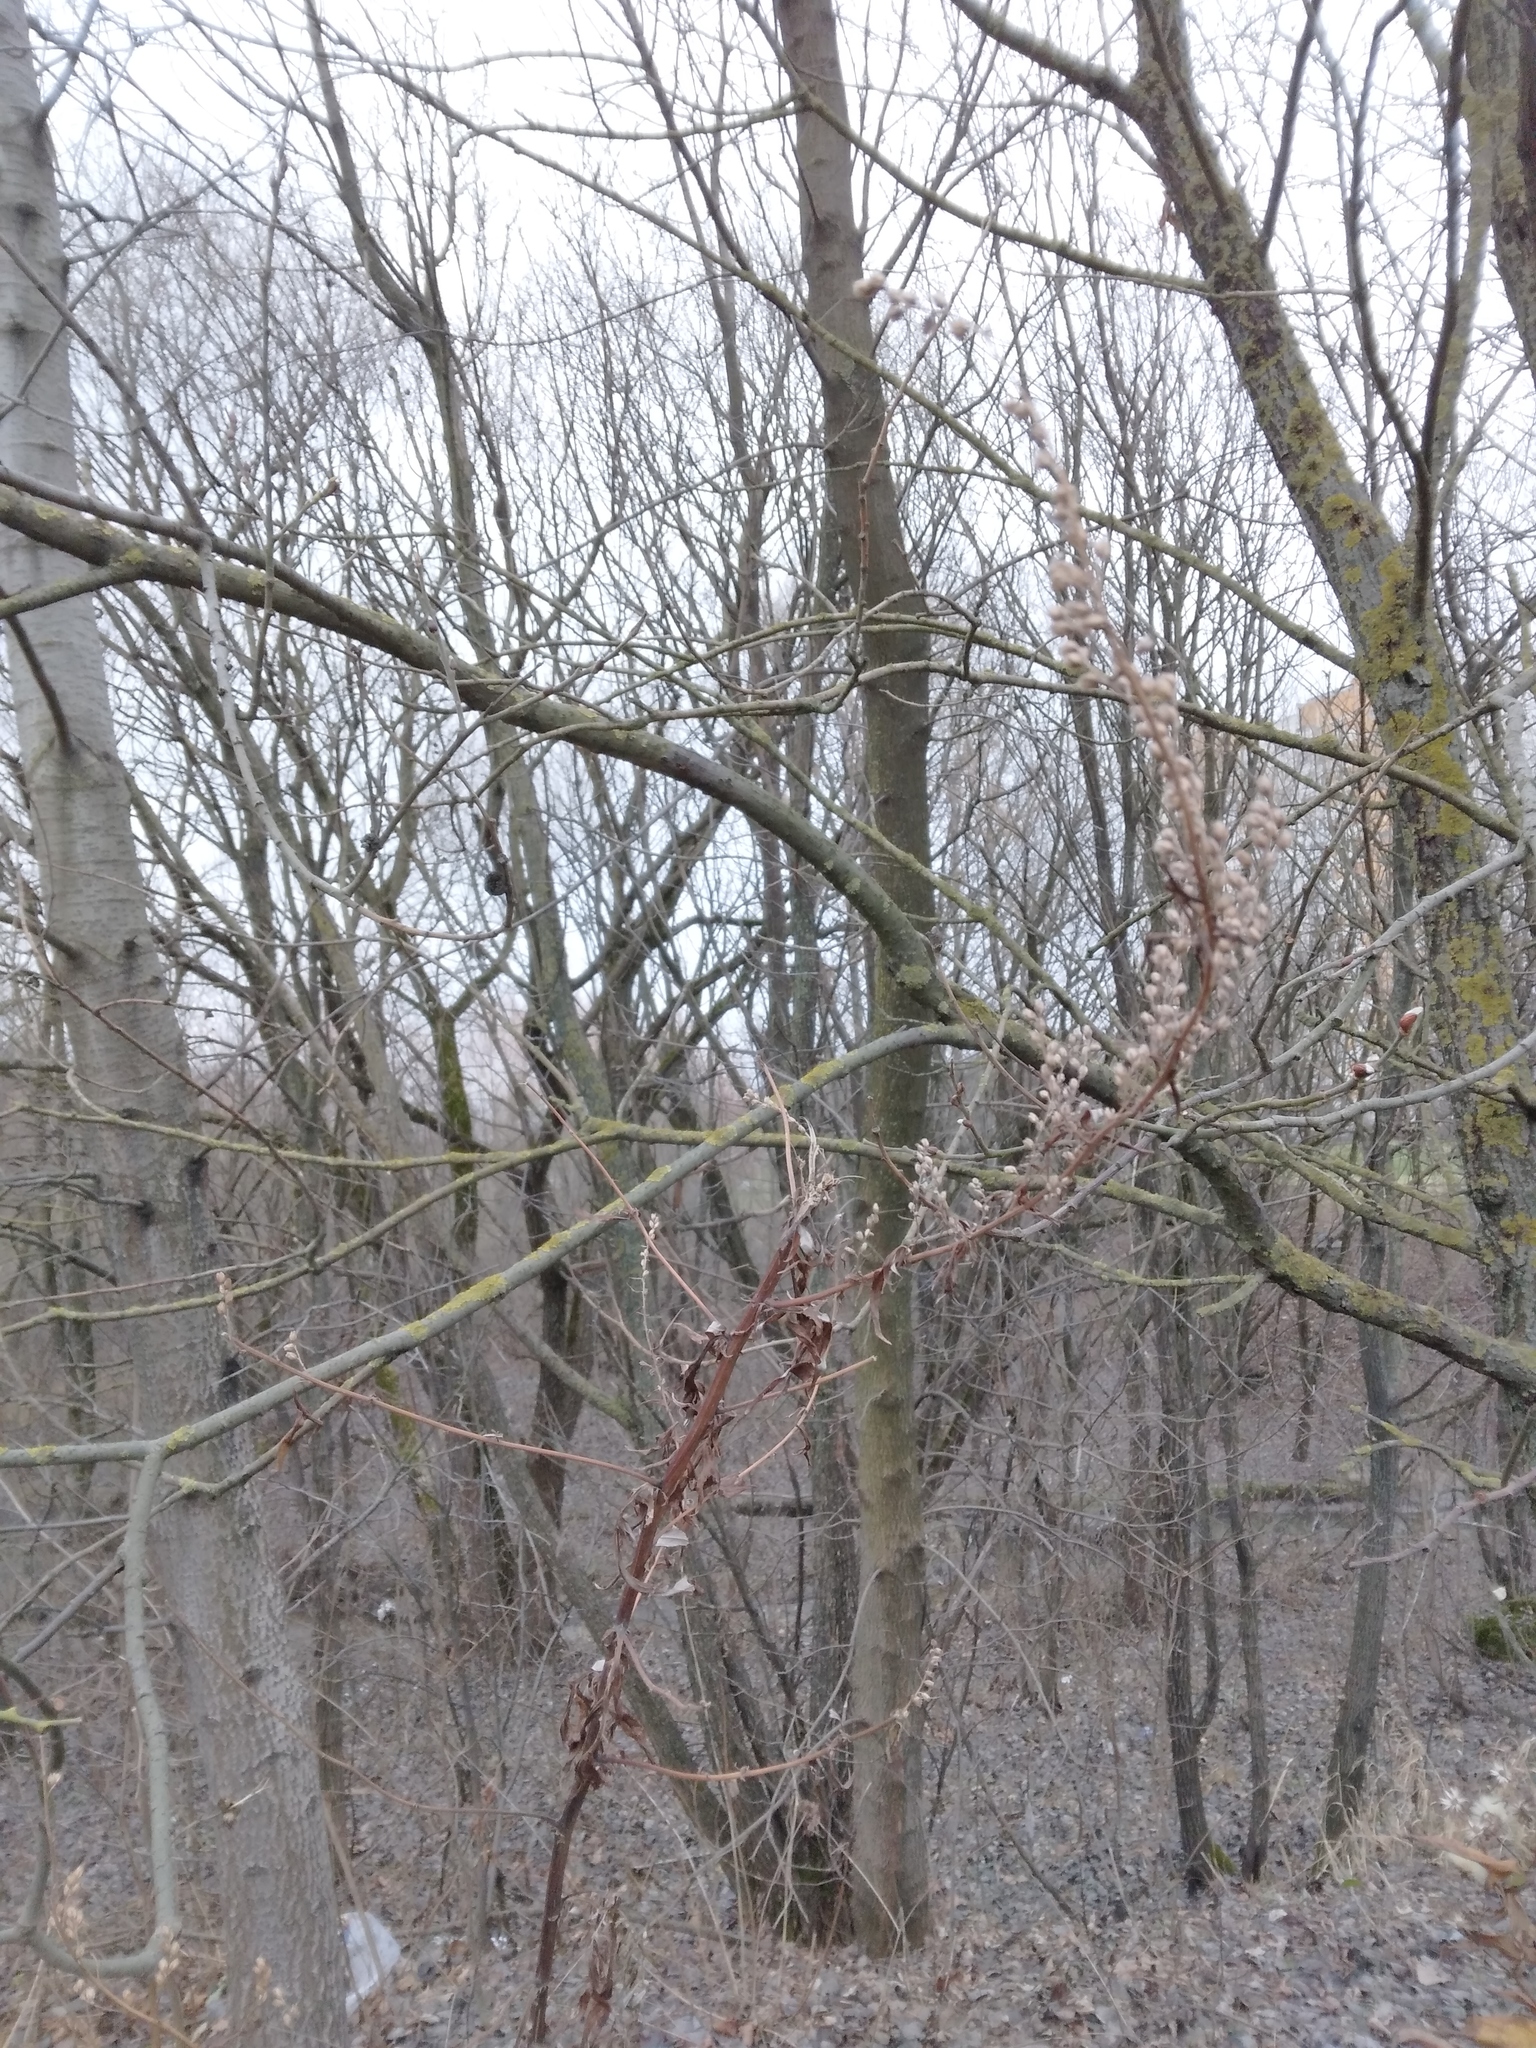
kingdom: Plantae
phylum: Tracheophyta
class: Magnoliopsida
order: Asterales
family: Asteraceae
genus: Artemisia
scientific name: Artemisia vulgaris
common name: Mugwort
